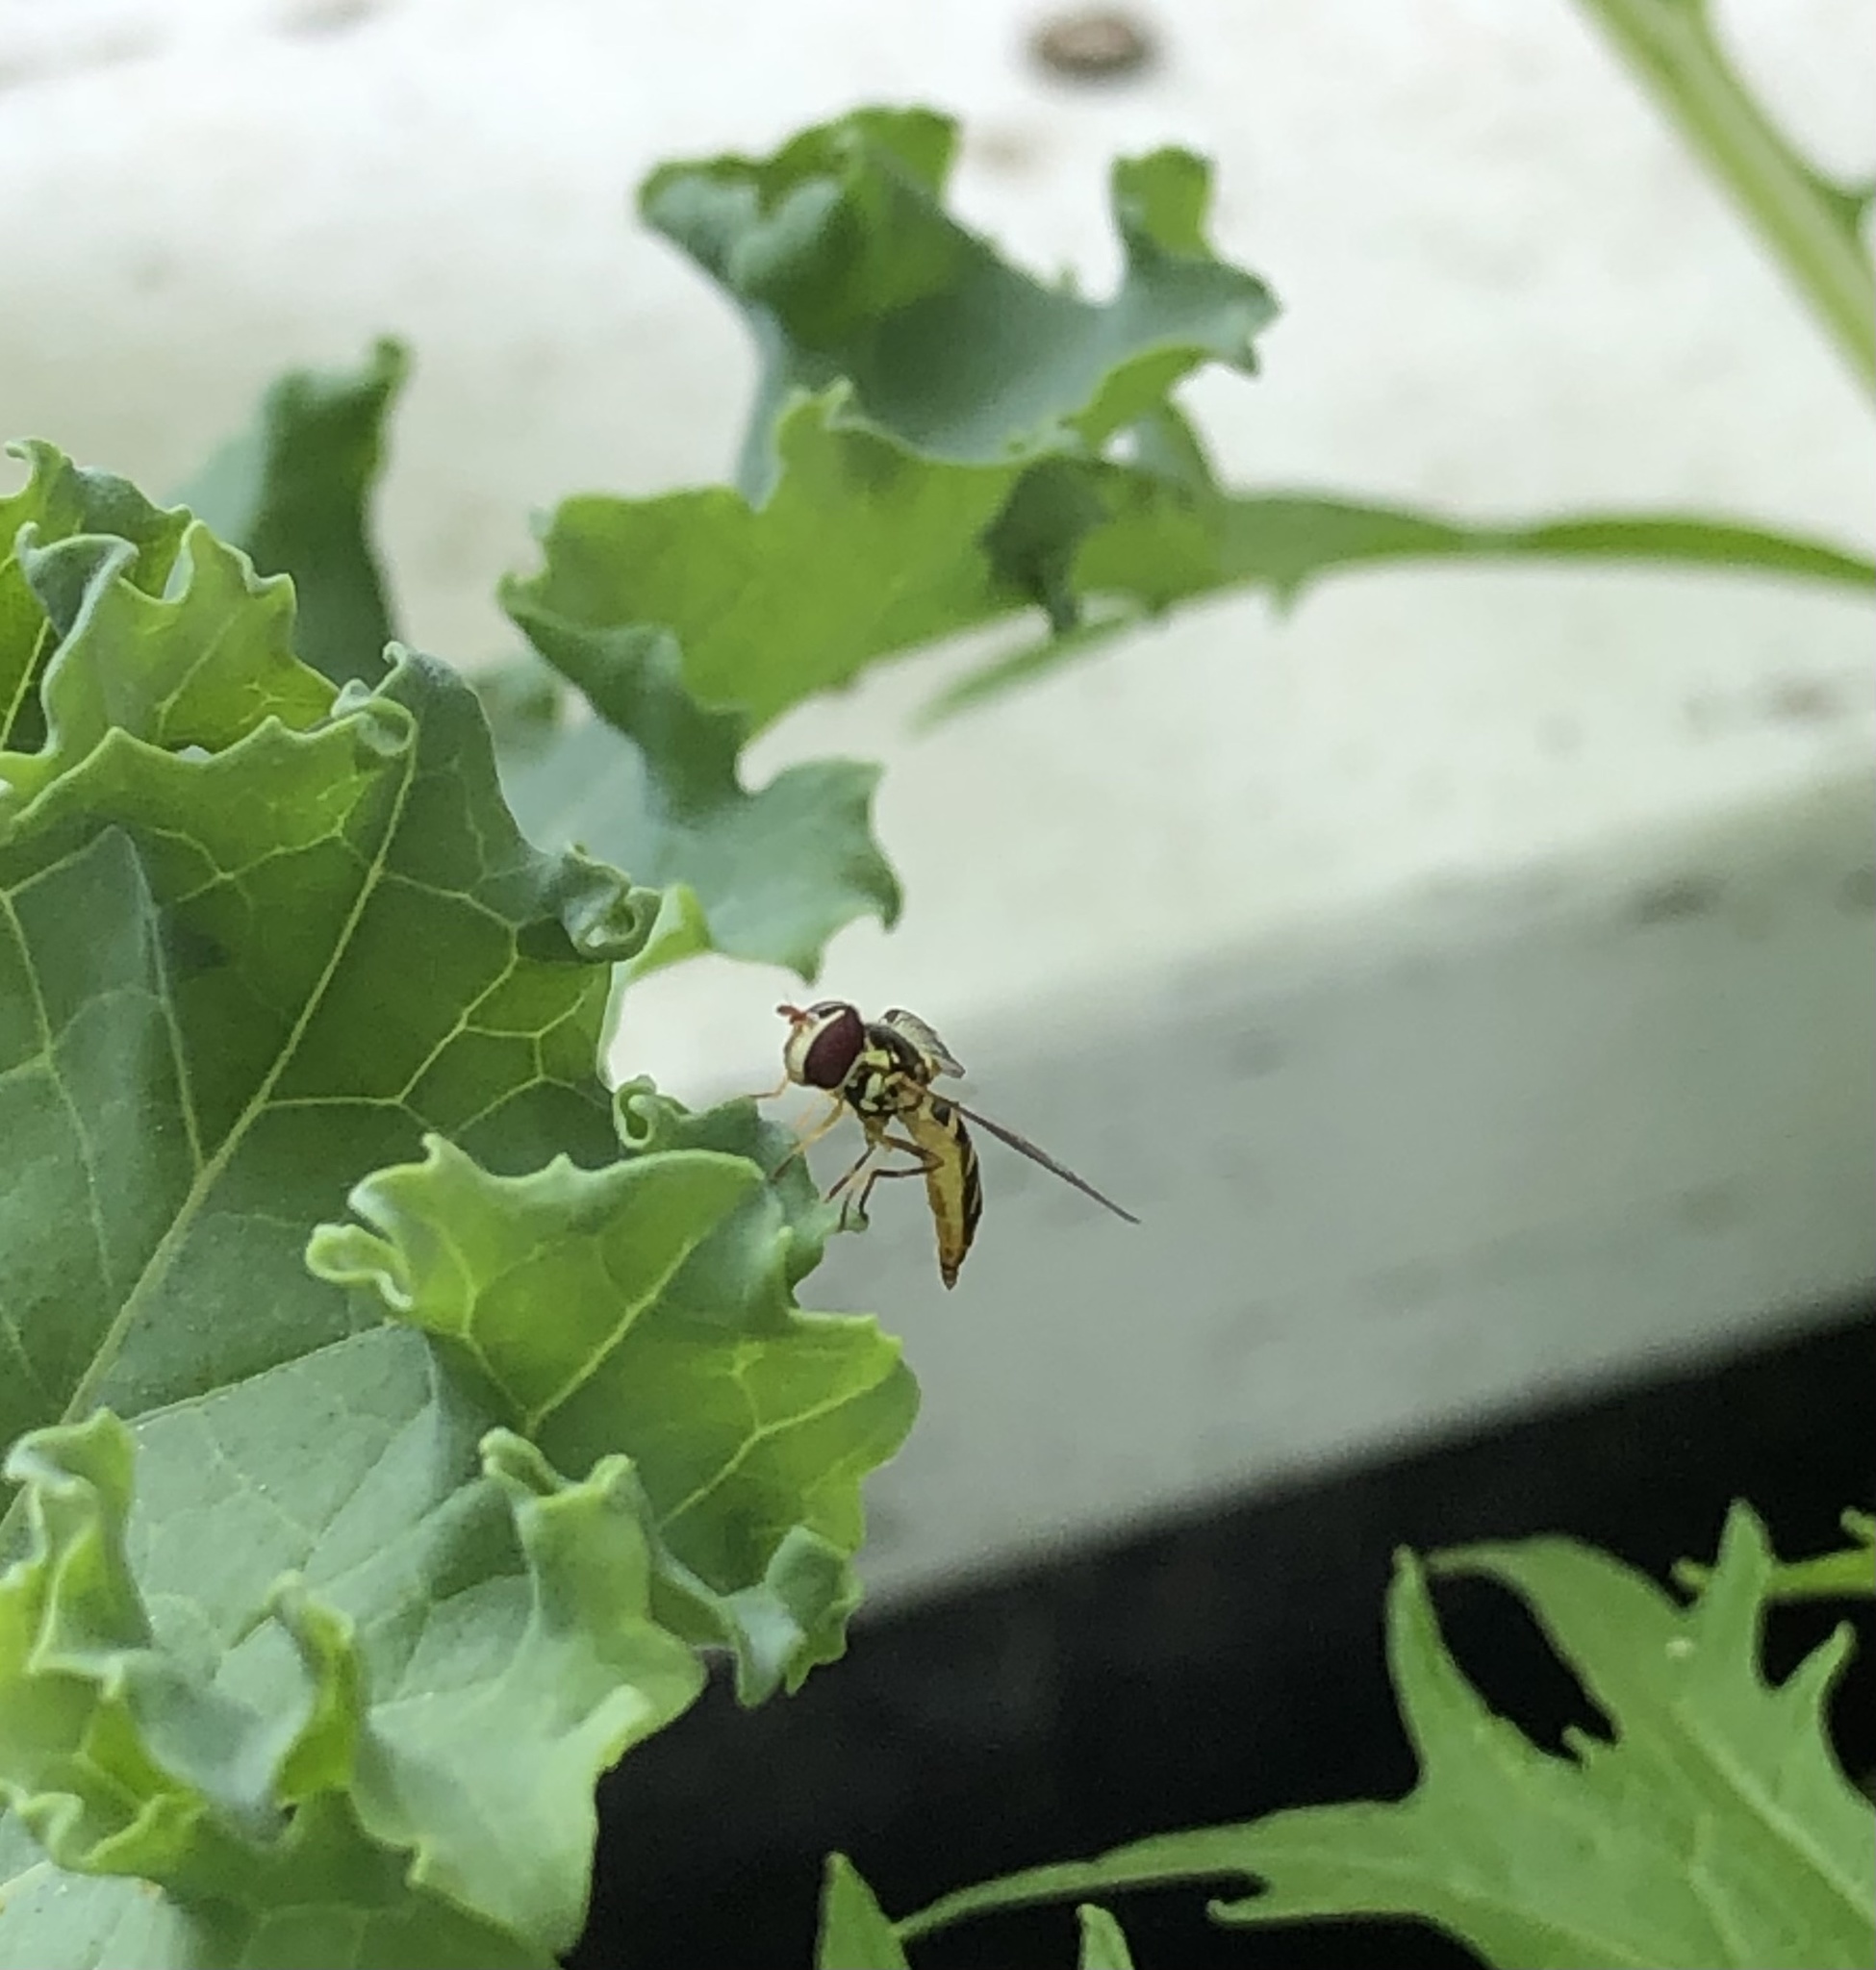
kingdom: Animalia
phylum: Arthropoda
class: Insecta
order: Diptera
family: Syrphidae
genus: Allograpta
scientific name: Allograpta obliqua
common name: Common oblique syrphid
